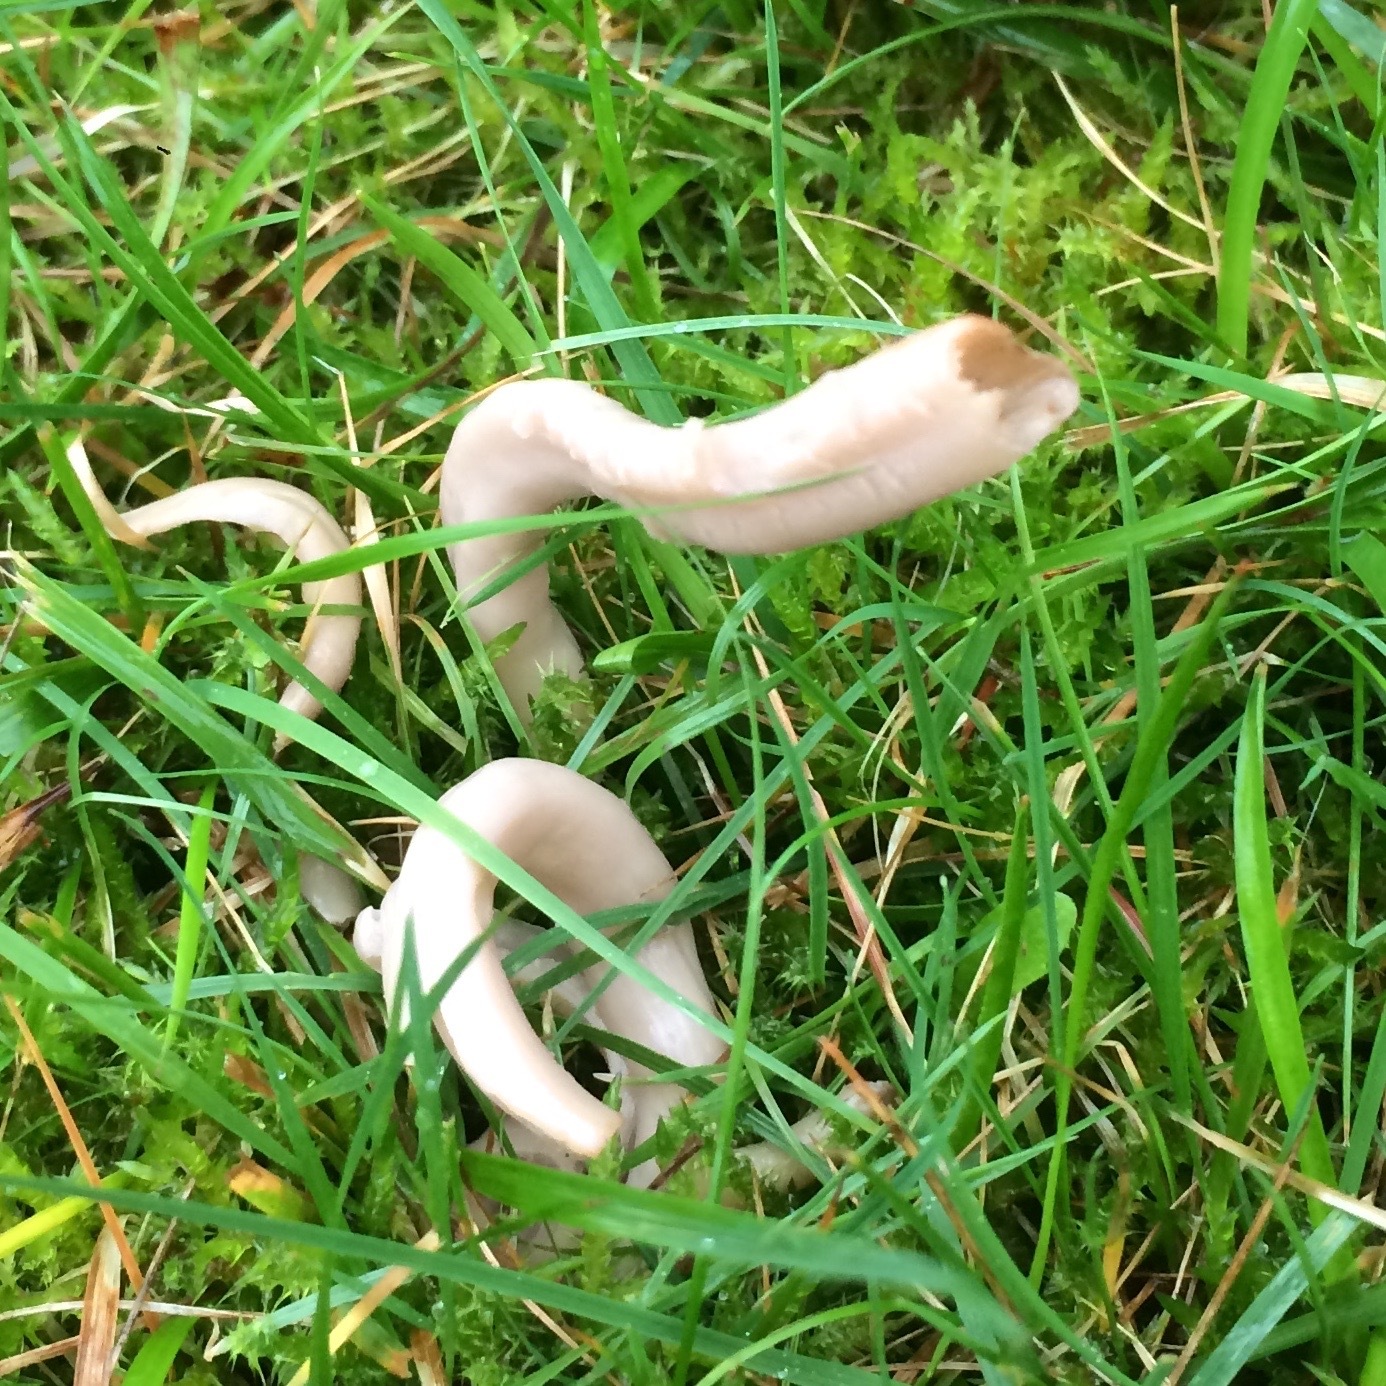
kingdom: Fungi
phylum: Basidiomycota
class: Agaricomycetes
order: Agaricales
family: Clavariaceae
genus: Clavaria
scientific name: Clavaria fumosa
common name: Smoky spindles
